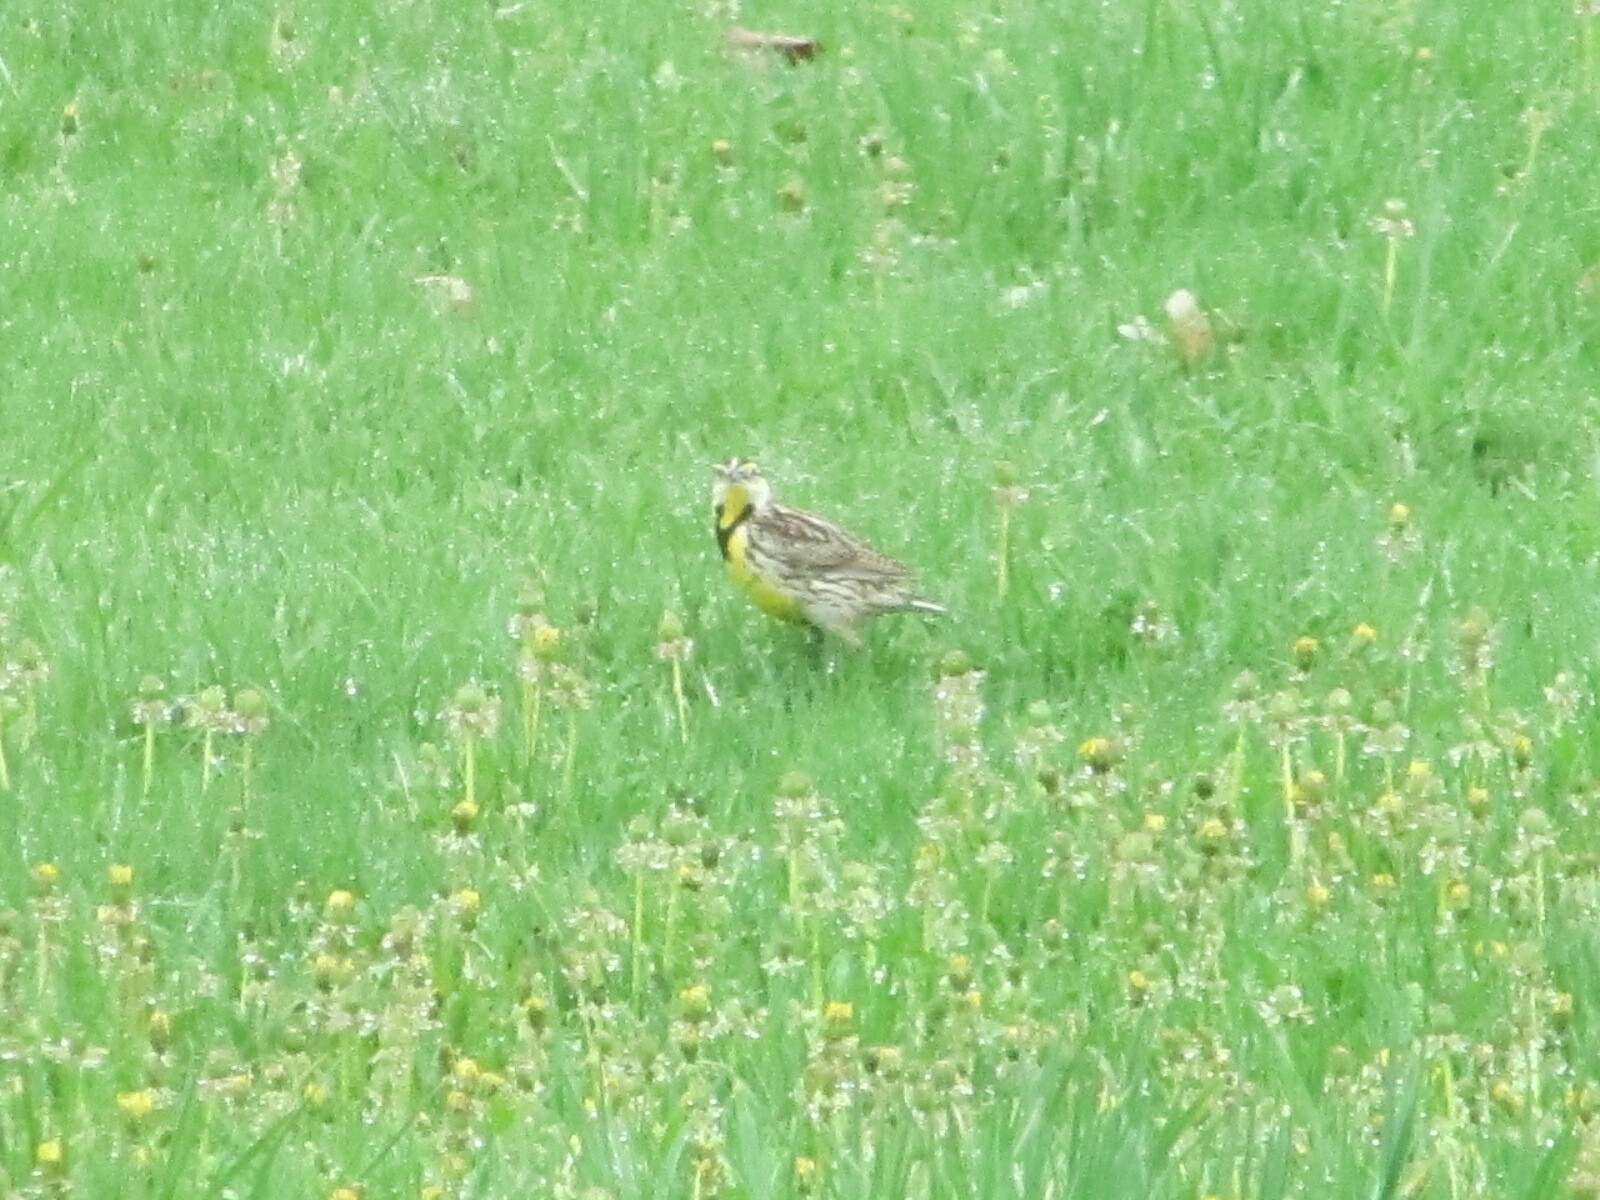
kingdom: Animalia
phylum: Chordata
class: Aves
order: Passeriformes
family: Icteridae
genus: Sturnella
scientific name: Sturnella magna
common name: Eastern meadowlark
